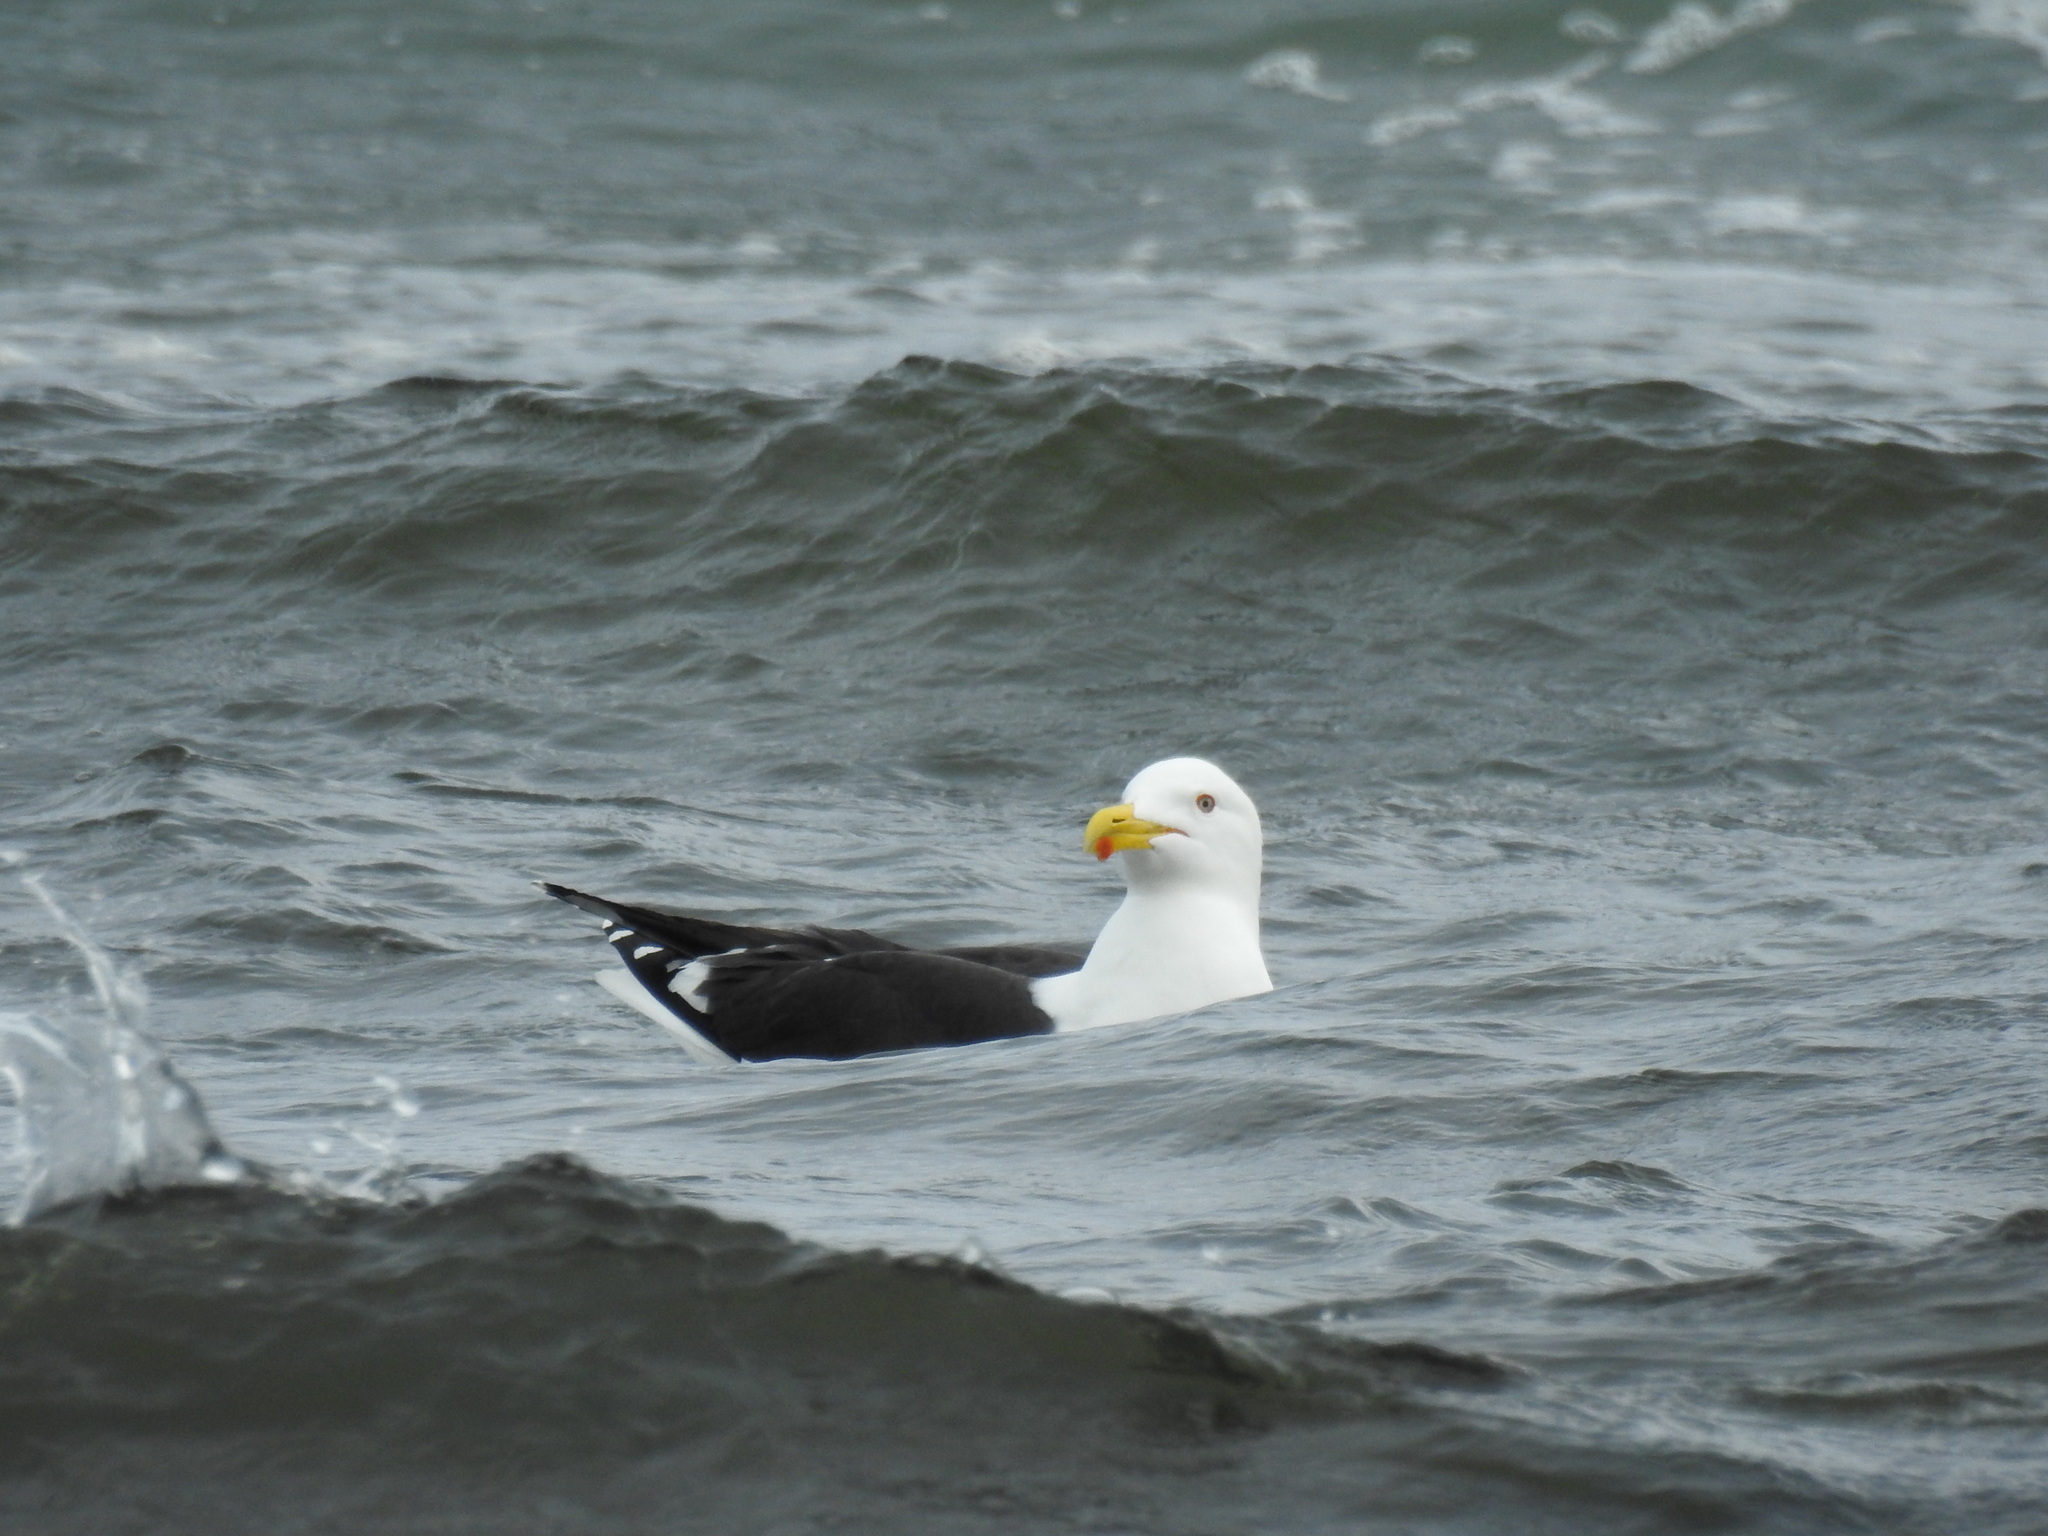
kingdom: Animalia
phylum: Chordata
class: Aves
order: Charadriiformes
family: Laridae
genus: Larus
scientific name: Larus dominicanus
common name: Kelp gull
